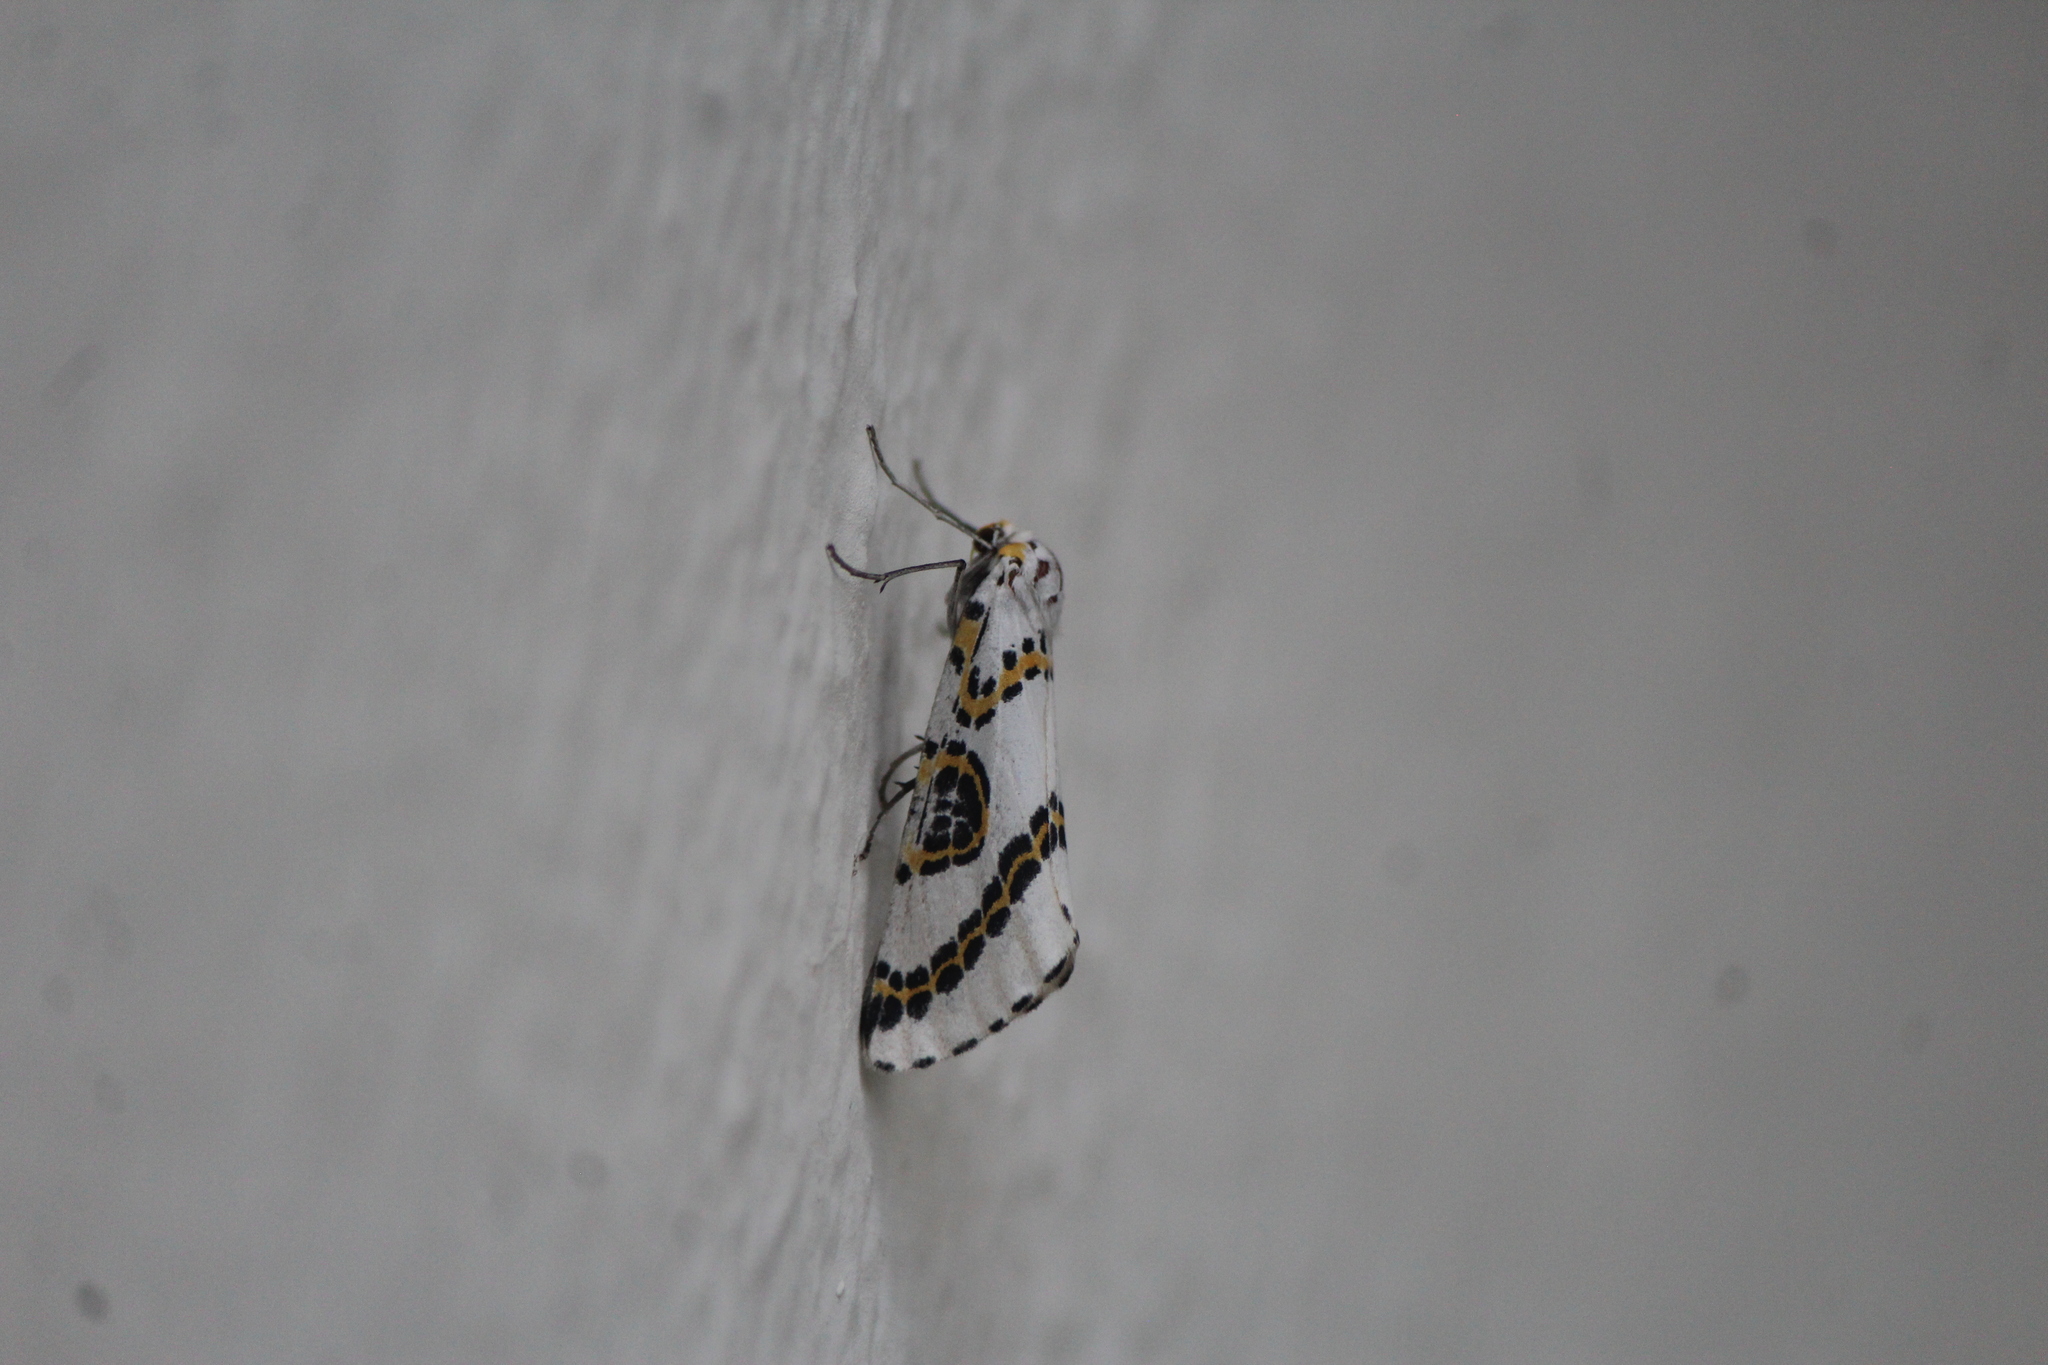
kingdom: Animalia
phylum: Arthropoda
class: Insecta
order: Lepidoptera
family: Geometridae
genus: Philtraea
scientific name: Philtraea mexicana
